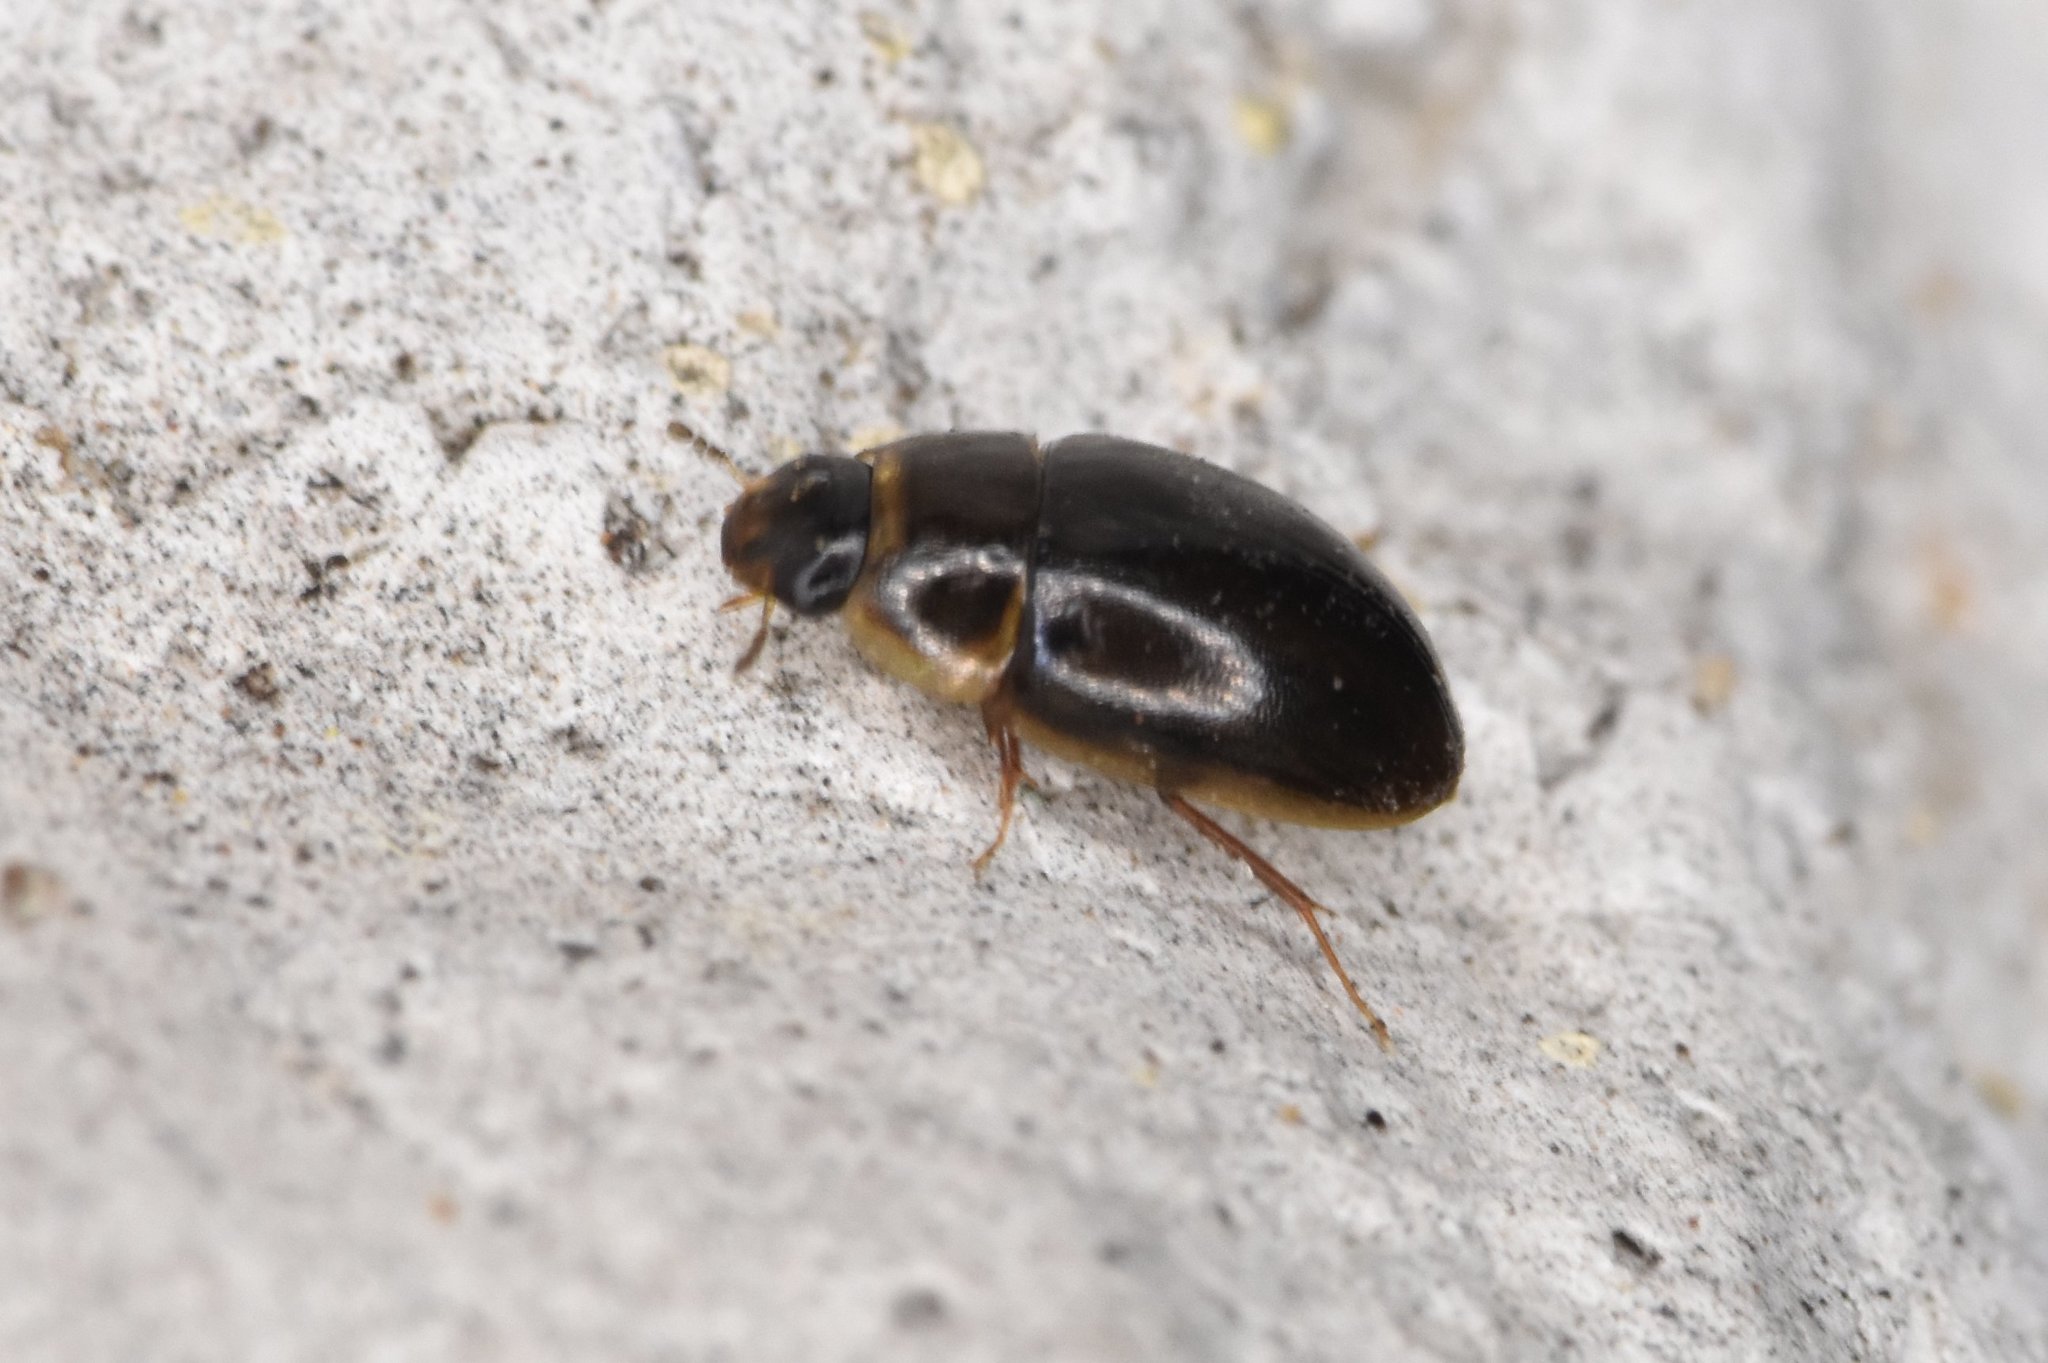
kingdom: Animalia
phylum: Arthropoda
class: Insecta
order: Coleoptera
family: Hydrophilidae
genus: Enochrus
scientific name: Enochrus
